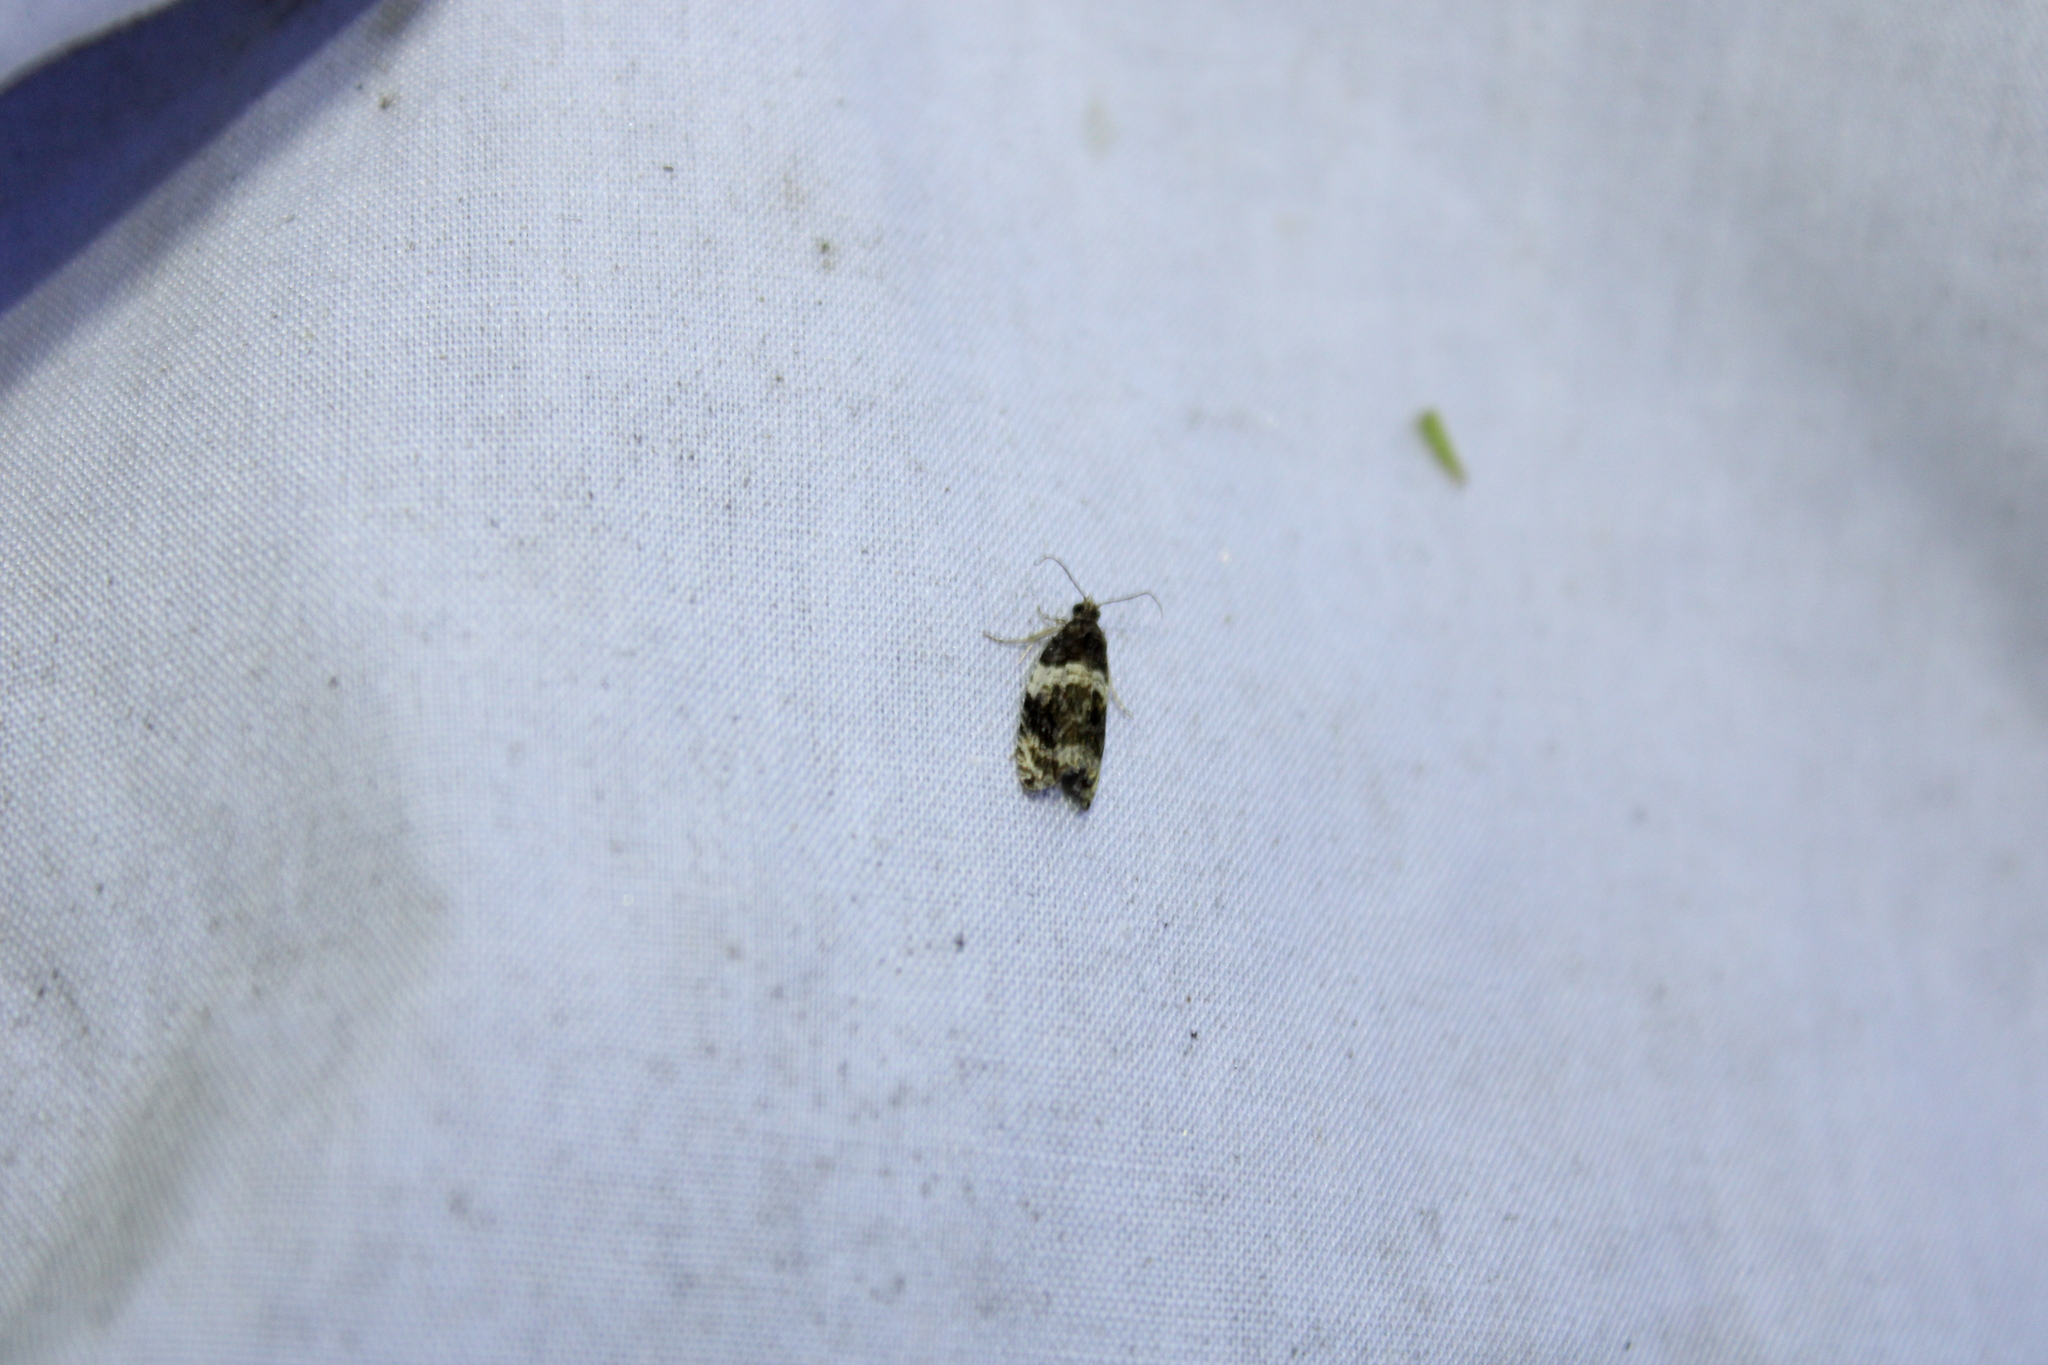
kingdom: Animalia
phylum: Arthropoda
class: Insecta
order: Lepidoptera
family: Tortricidae
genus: Olethreutes
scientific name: Olethreutes fasciatana
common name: Banded olethreutes moth
